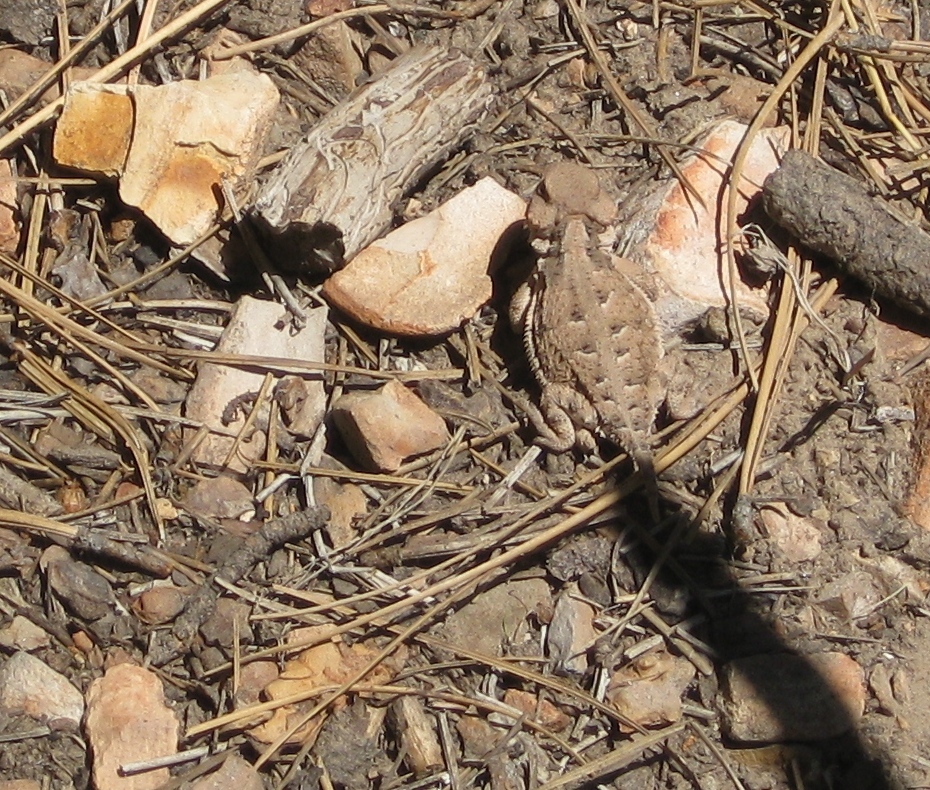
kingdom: Animalia
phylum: Chordata
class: Squamata
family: Phrynosomatidae
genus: Phrynosoma
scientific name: Phrynosoma hernandesi
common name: Greater short-horned lizard
